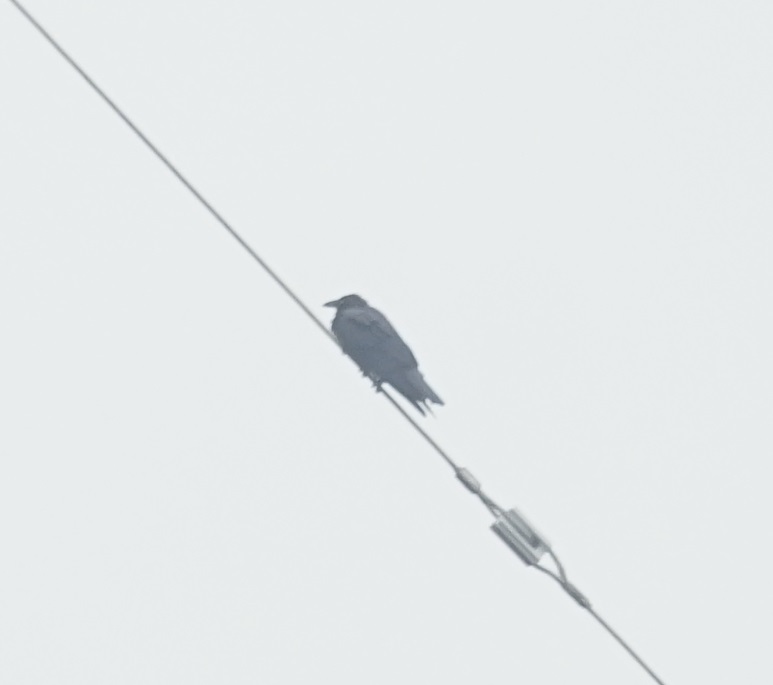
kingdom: Animalia
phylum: Chordata
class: Aves
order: Passeriformes
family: Corvidae
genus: Corvus
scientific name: Corvus coronoides
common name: Australian raven
